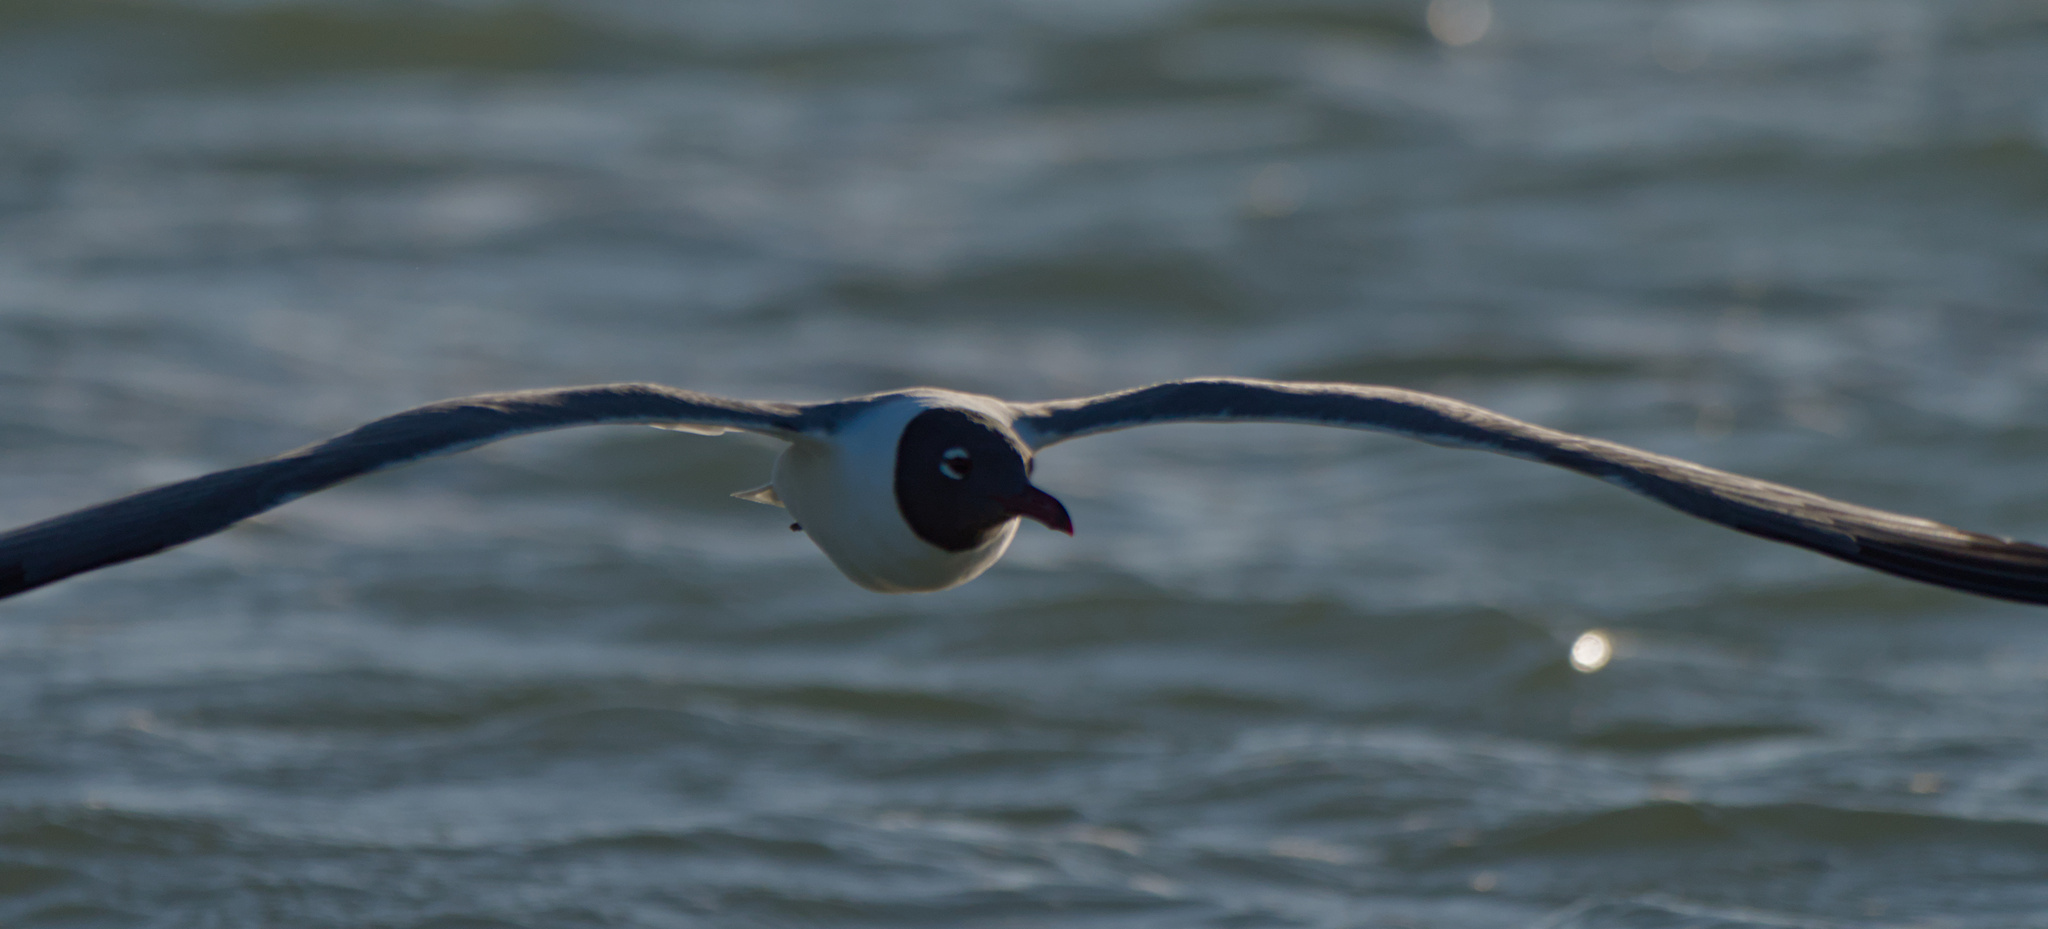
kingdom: Animalia
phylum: Chordata
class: Aves
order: Charadriiformes
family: Laridae
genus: Leucophaeus
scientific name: Leucophaeus atricilla
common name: Laughing gull
